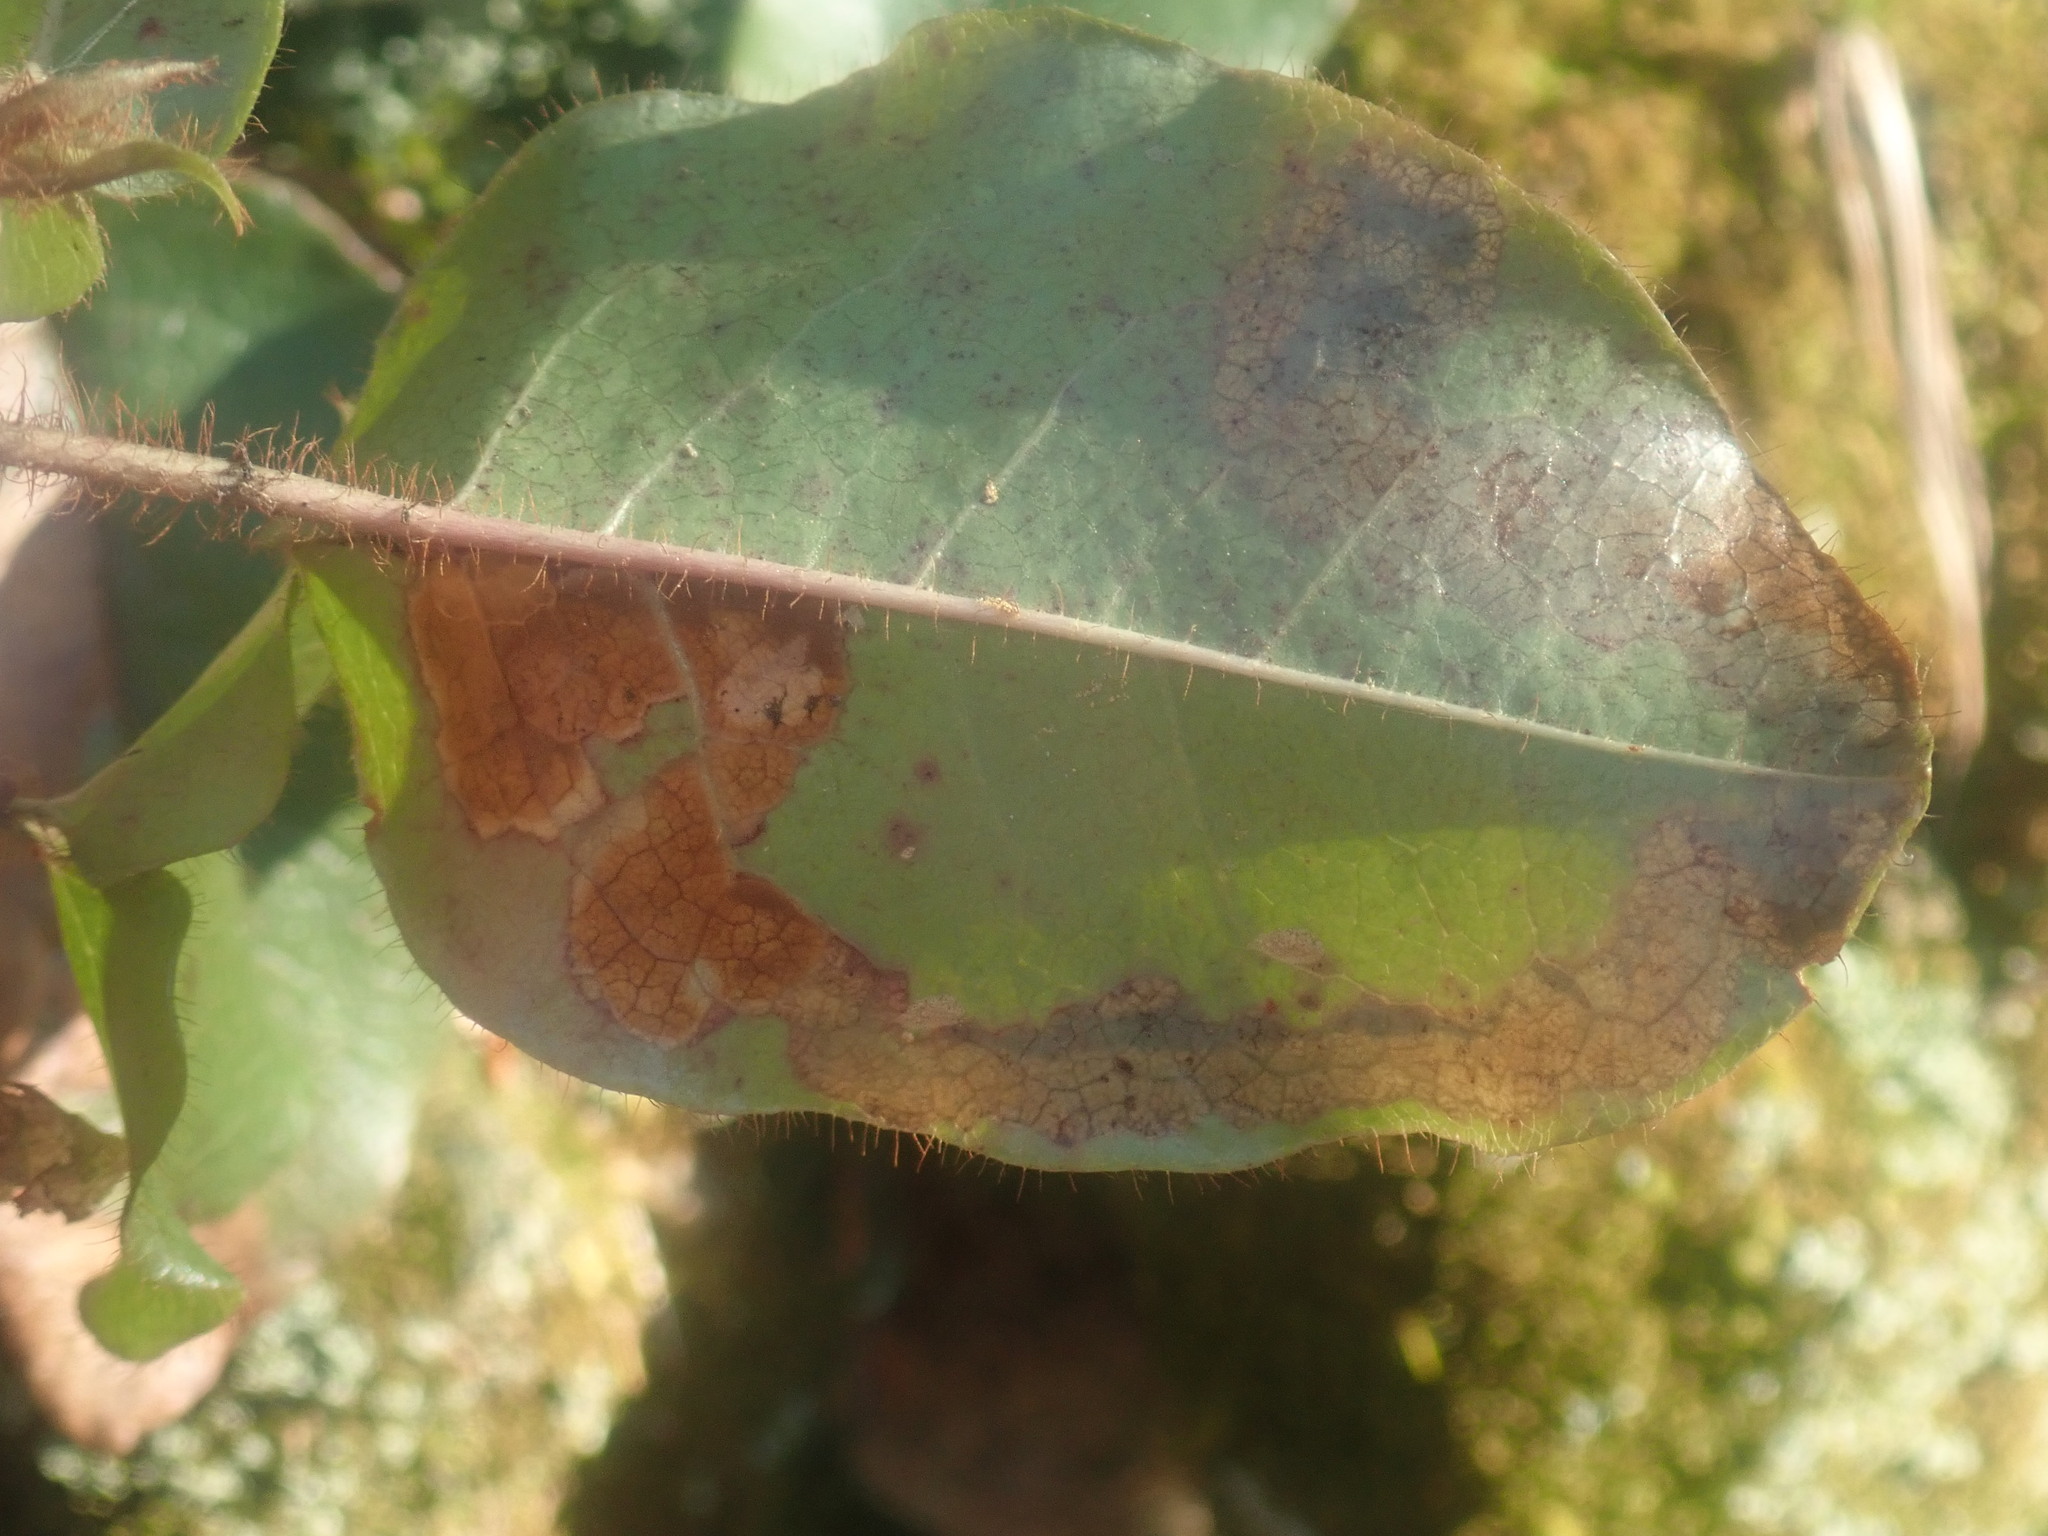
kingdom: Animalia
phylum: Arthropoda
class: Insecta
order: Coleoptera
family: Buprestidae
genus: Brachys
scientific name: Brachys
